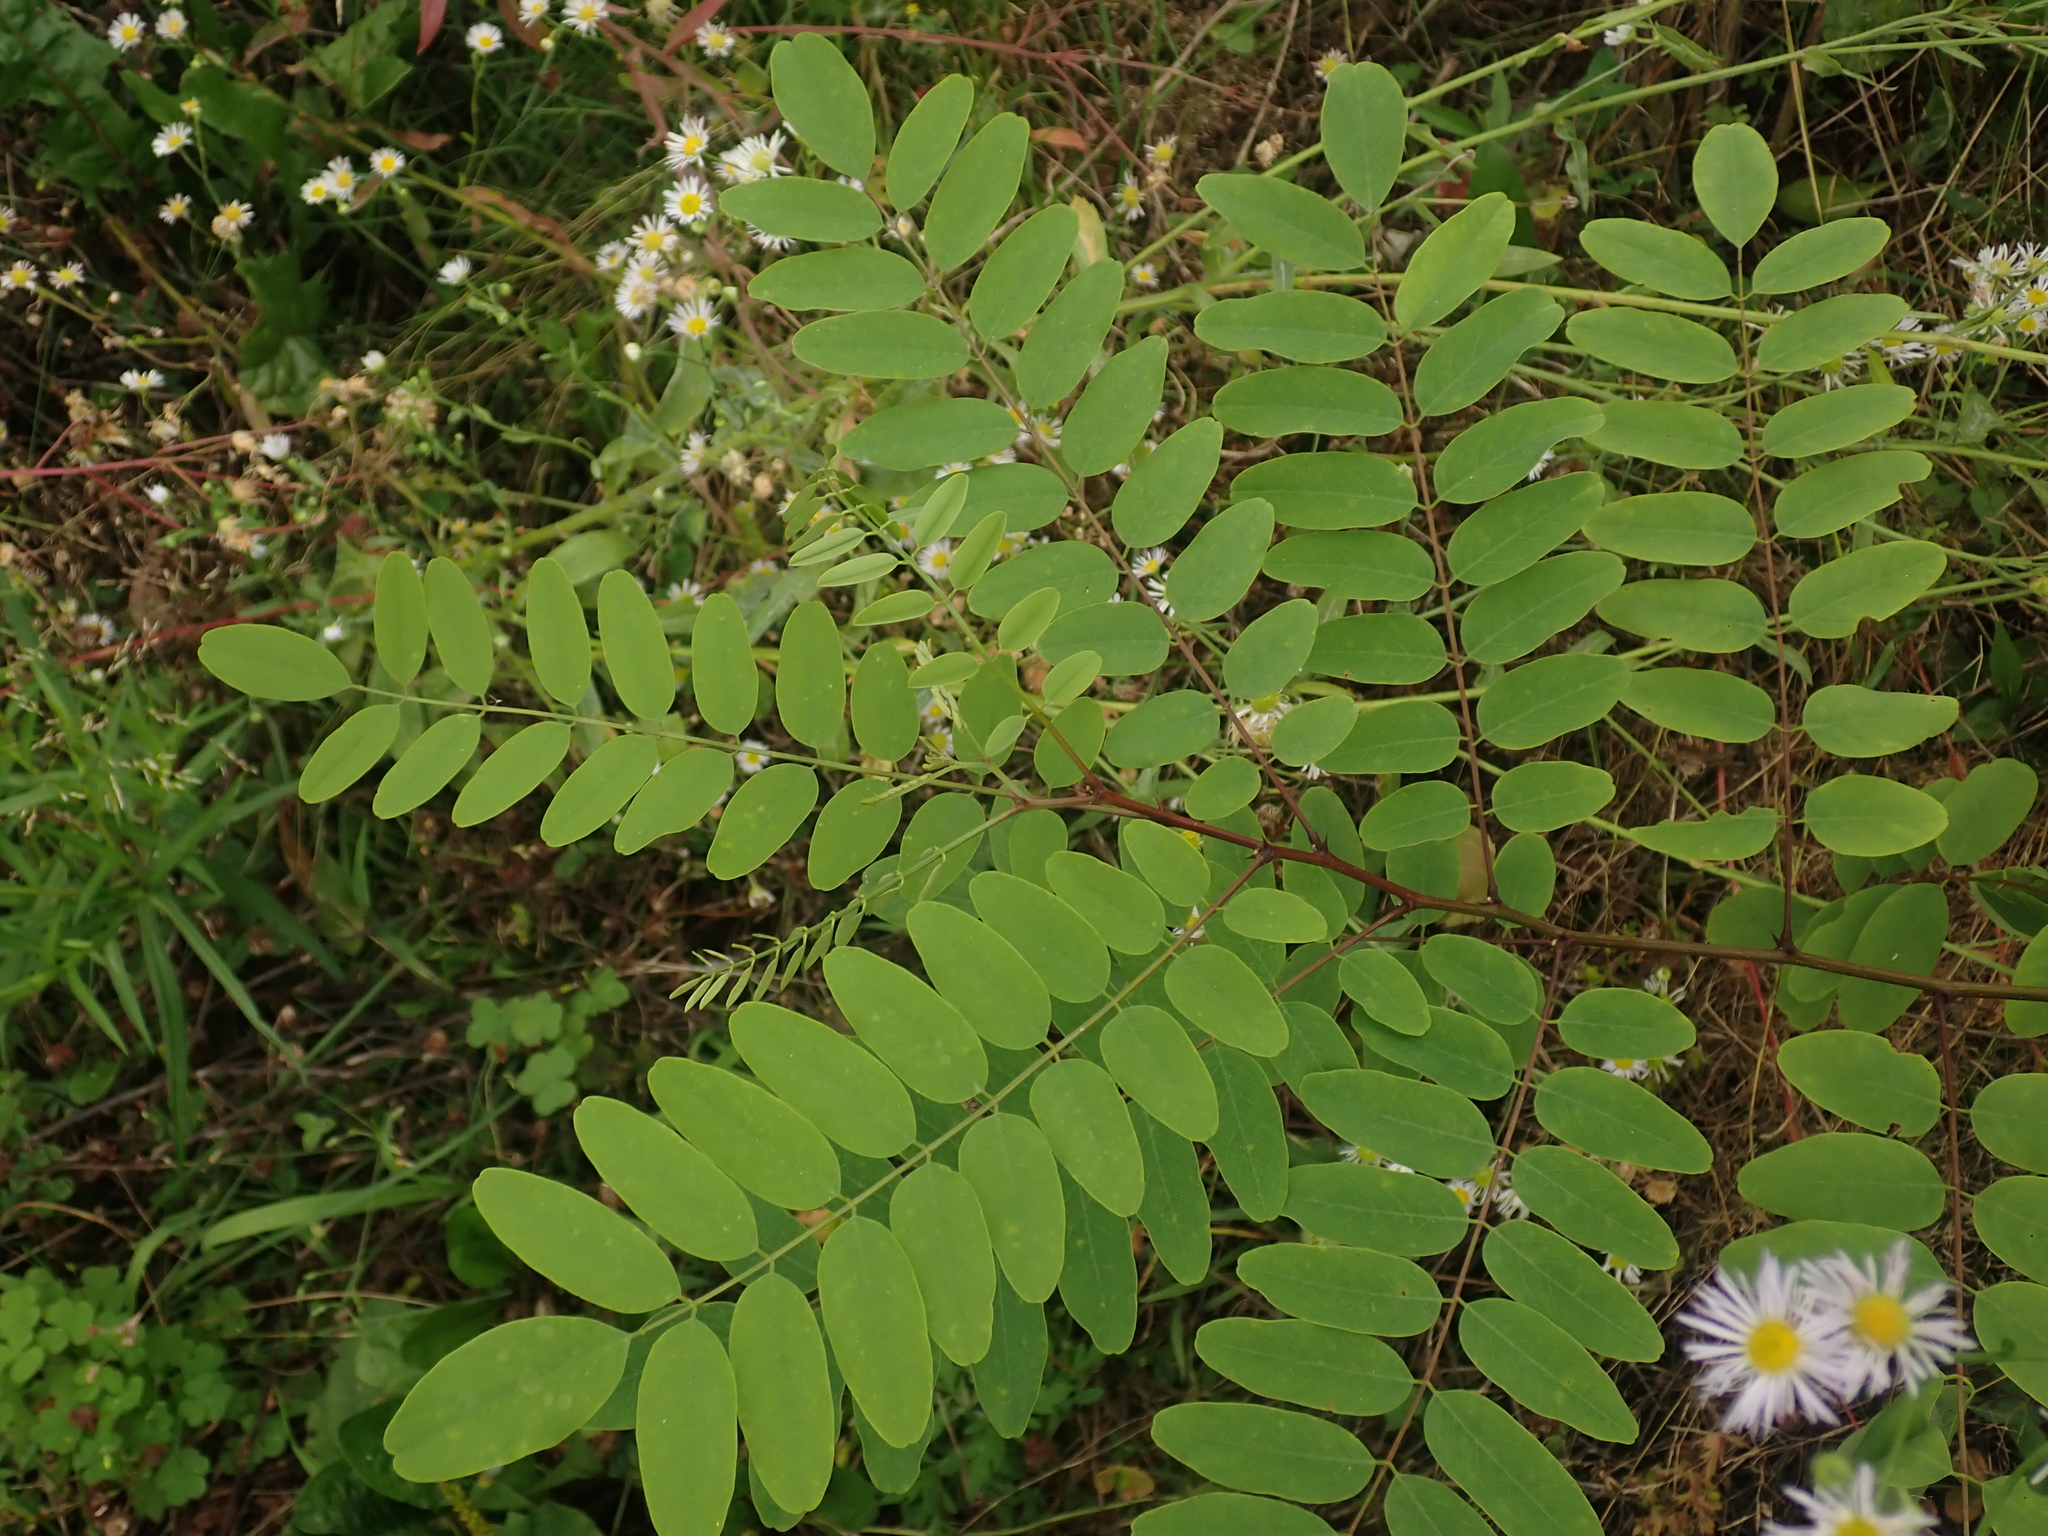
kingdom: Plantae
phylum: Tracheophyta
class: Magnoliopsida
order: Fabales
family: Fabaceae
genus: Robinia
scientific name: Robinia pseudoacacia
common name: Black locust
